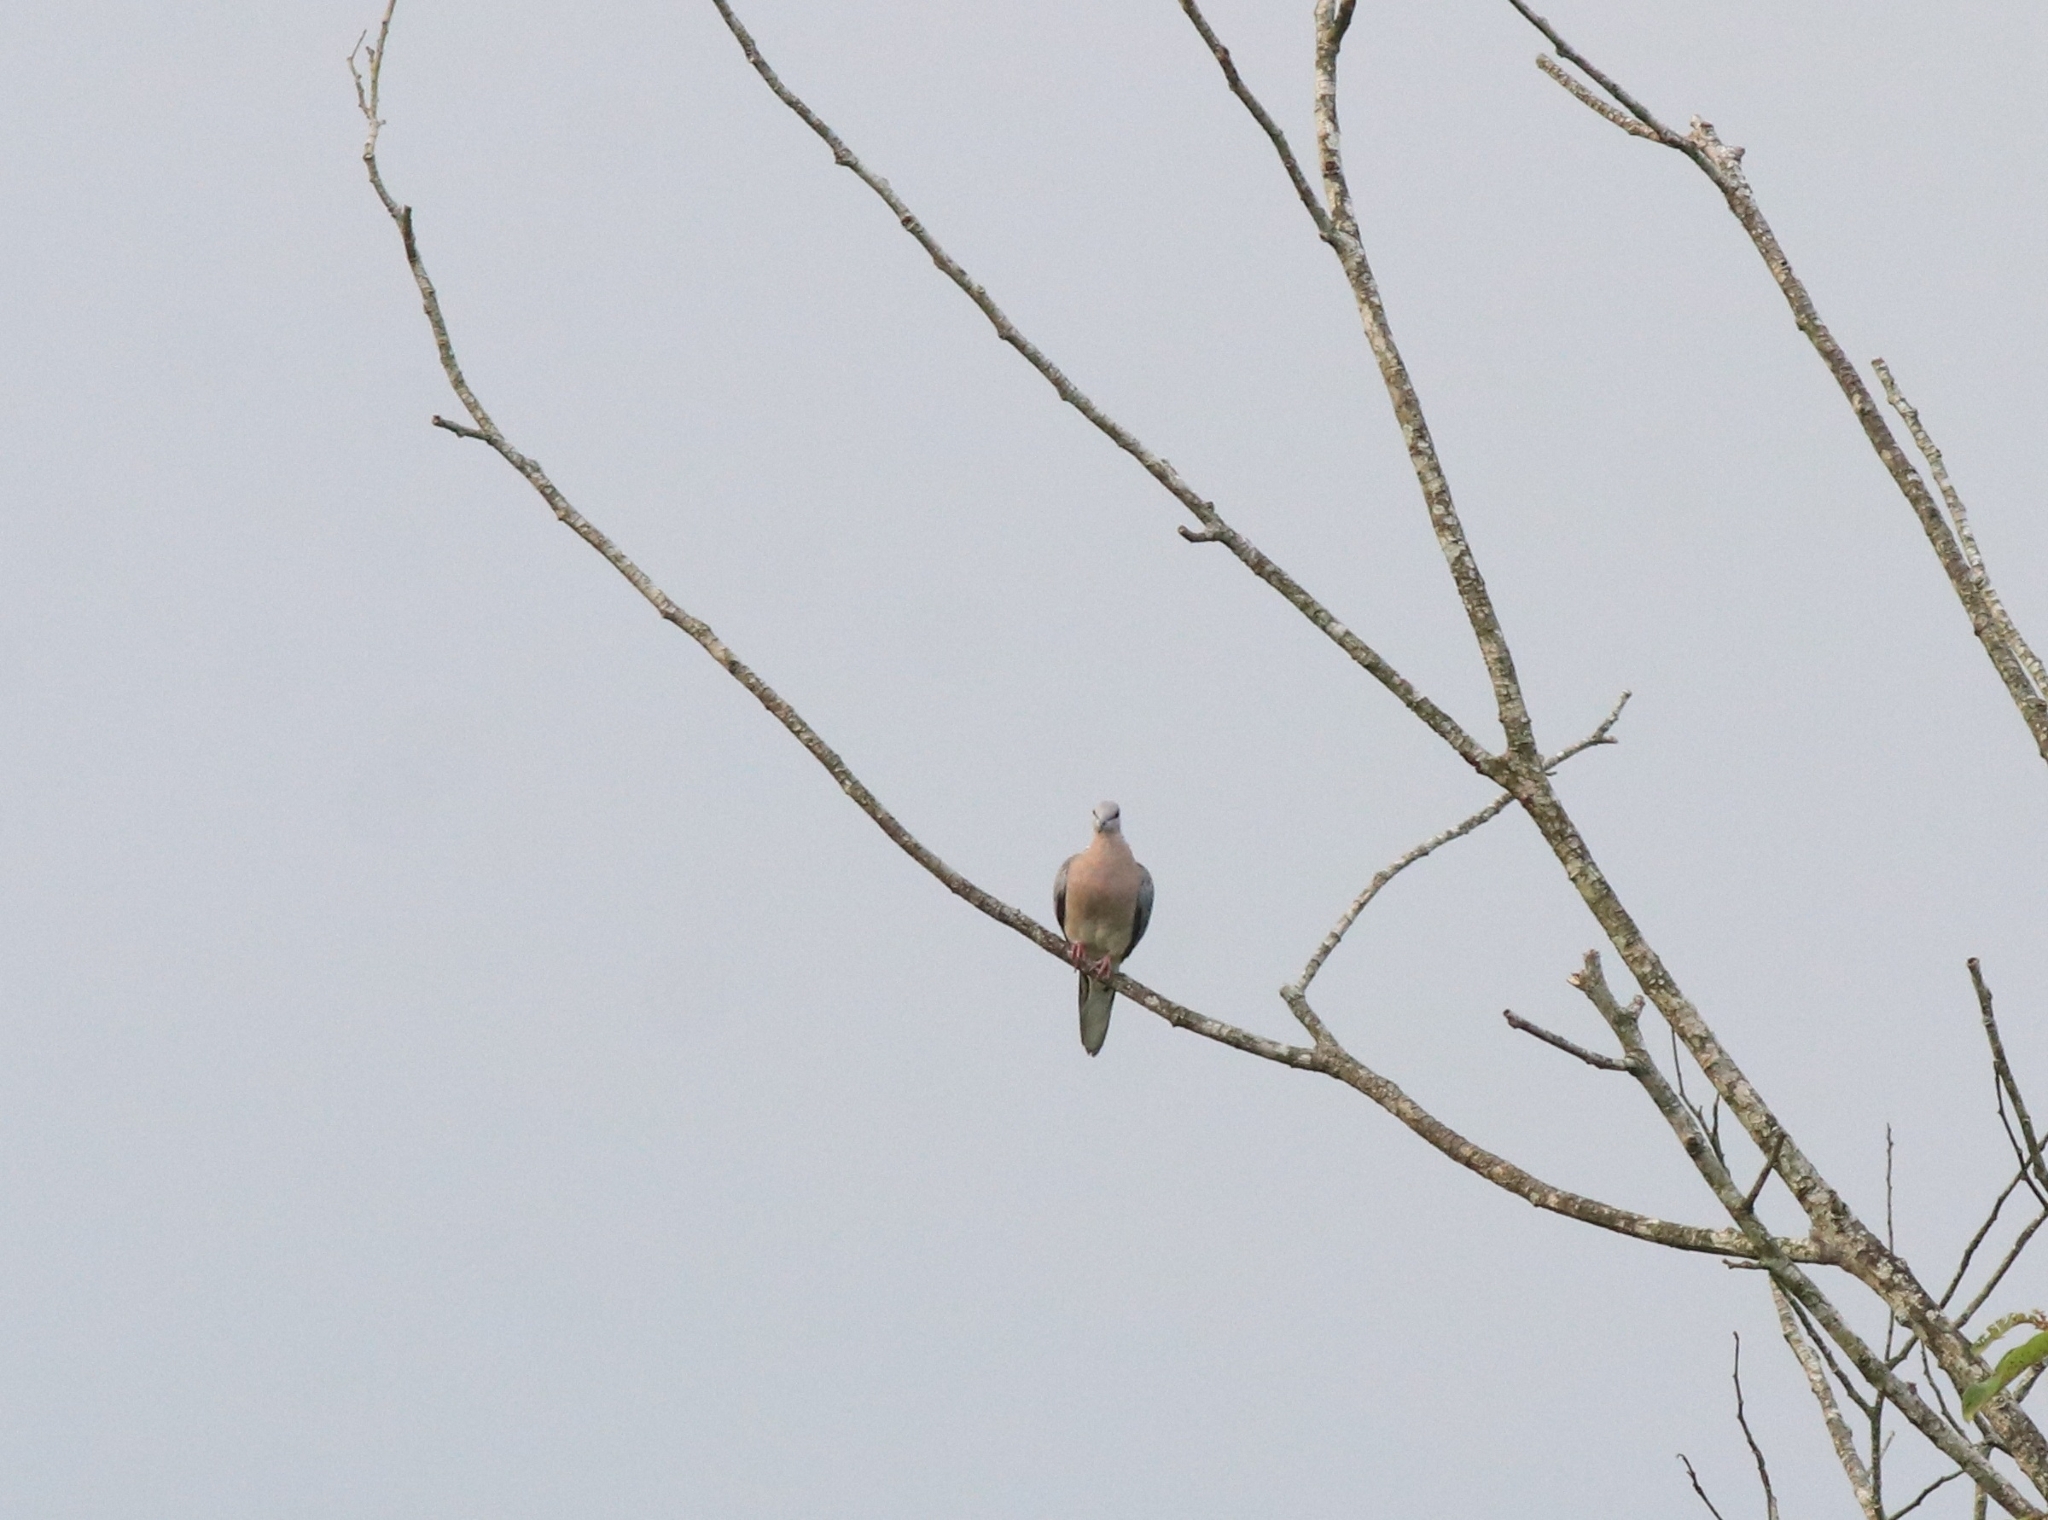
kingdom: Animalia
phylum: Chordata
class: Aves
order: Columbiformes
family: Columbidae
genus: Spilopelia
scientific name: Spilopelia chinensis
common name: Spotted dove
